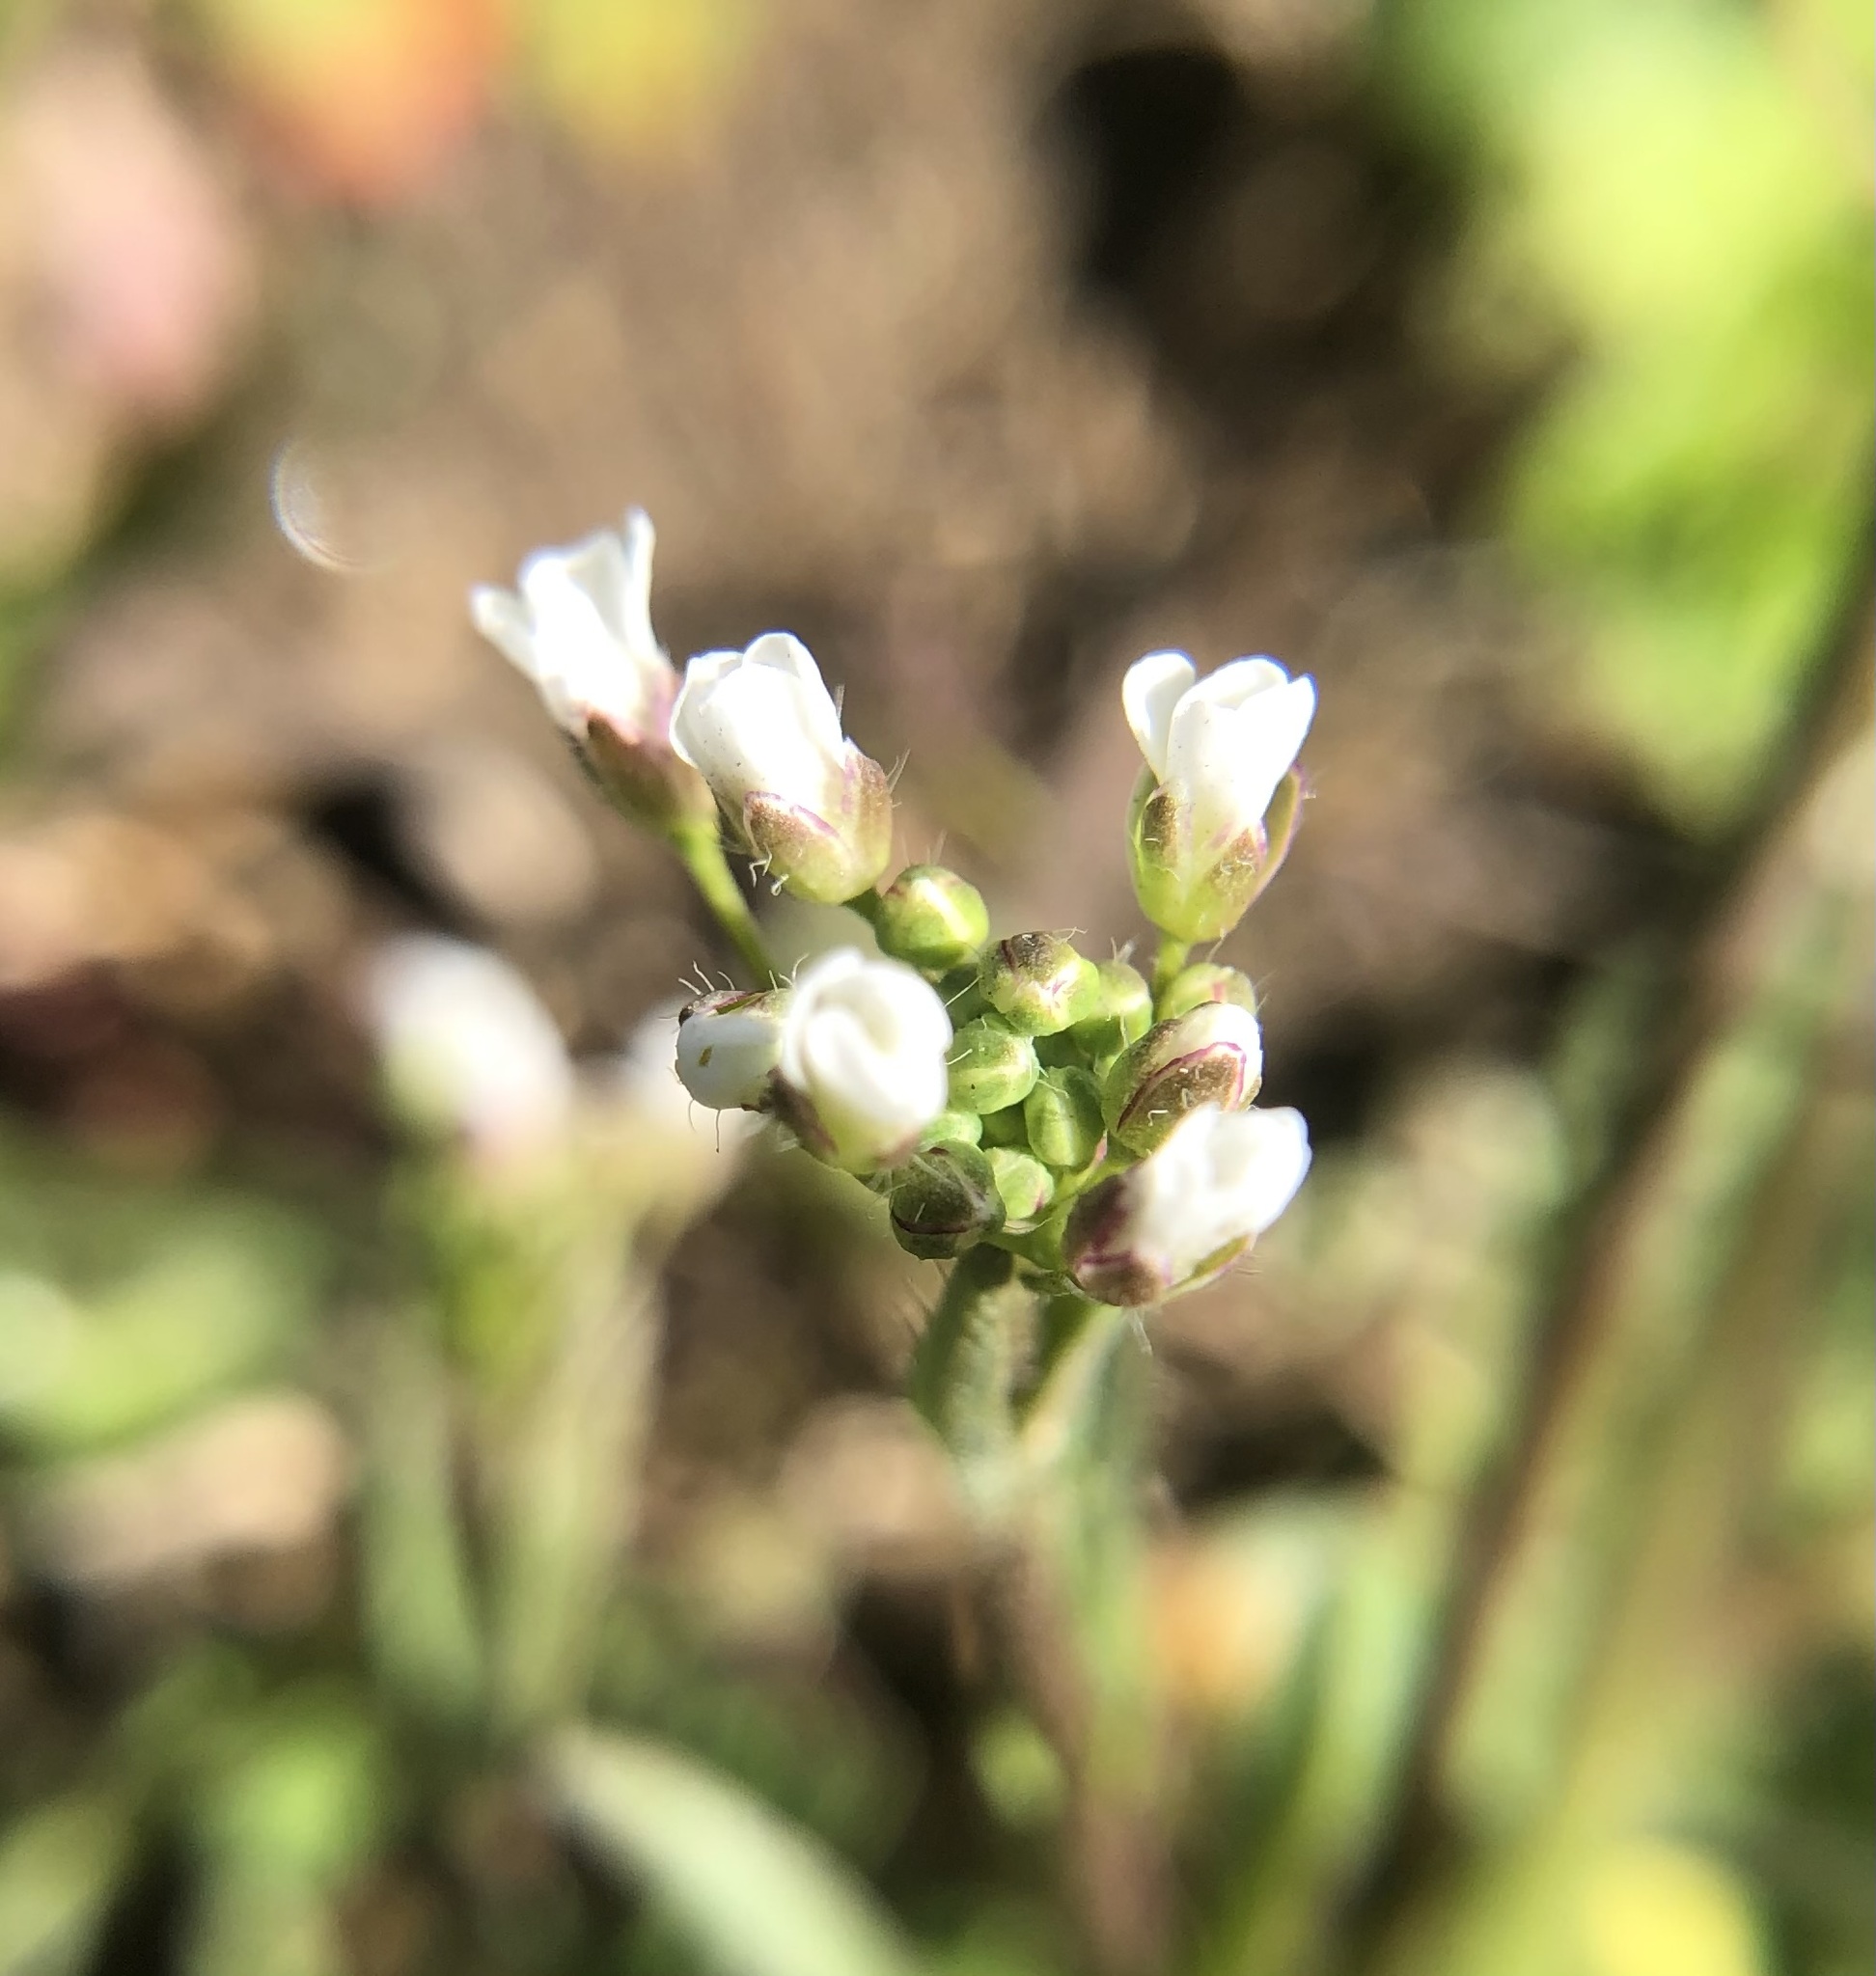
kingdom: Plantae
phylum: Tracheophyta
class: Magnoliopsida
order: Brassicales
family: Brassicaceae
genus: Capsella
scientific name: Capsella bursa-pastoris
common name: Shepherd's purse
